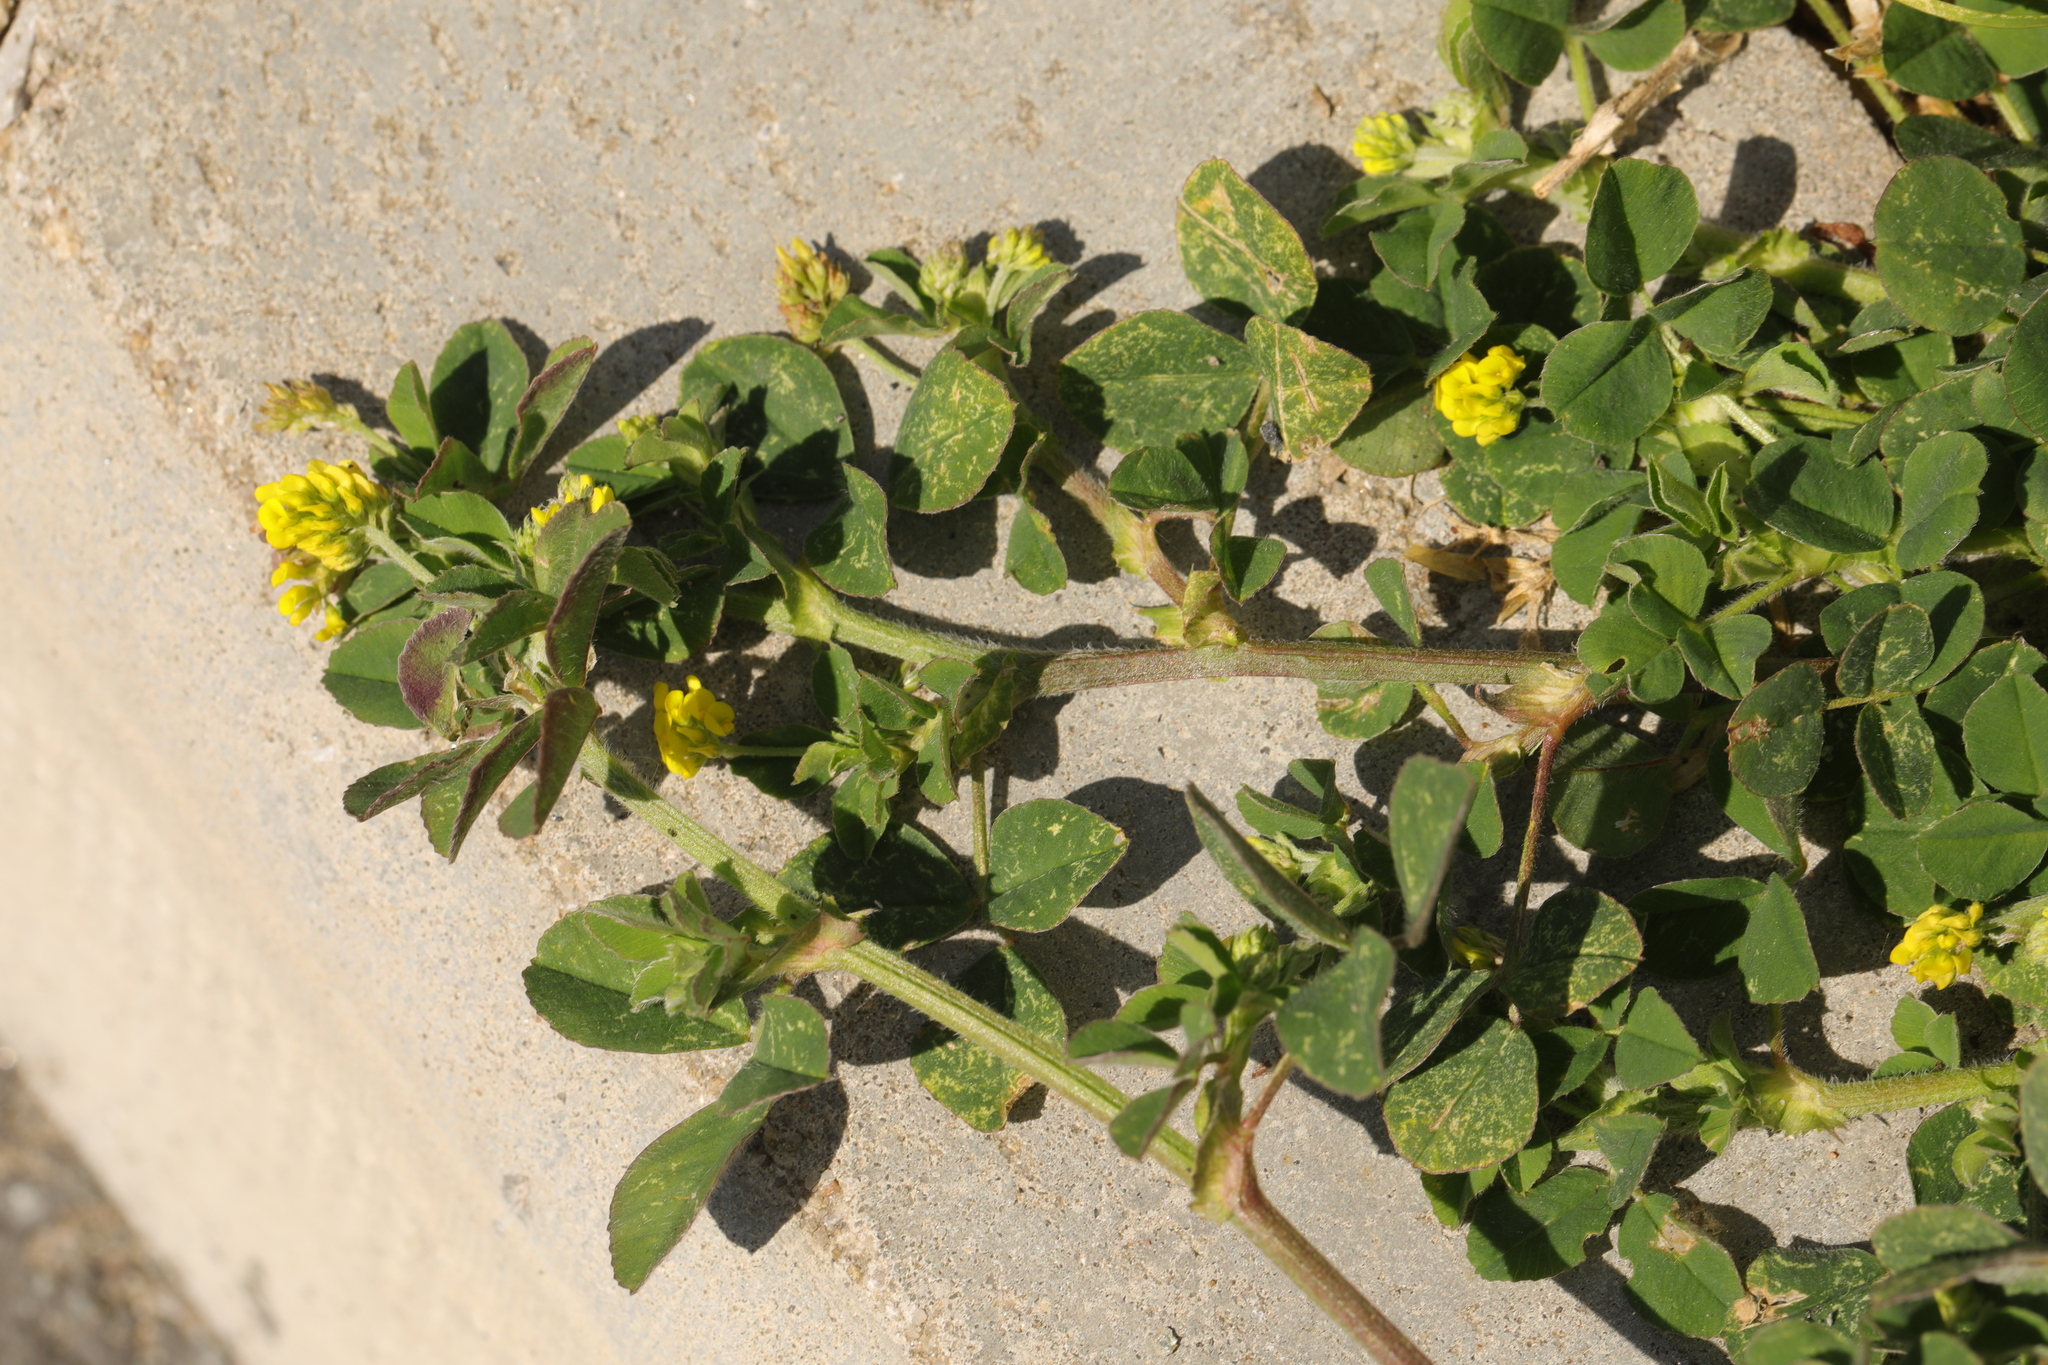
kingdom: Plantae
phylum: Tracheophyta
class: Magnoliopsida
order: Fabales
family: Fabaceae
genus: Medicago
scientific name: Medicago lupulina
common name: Black medick
